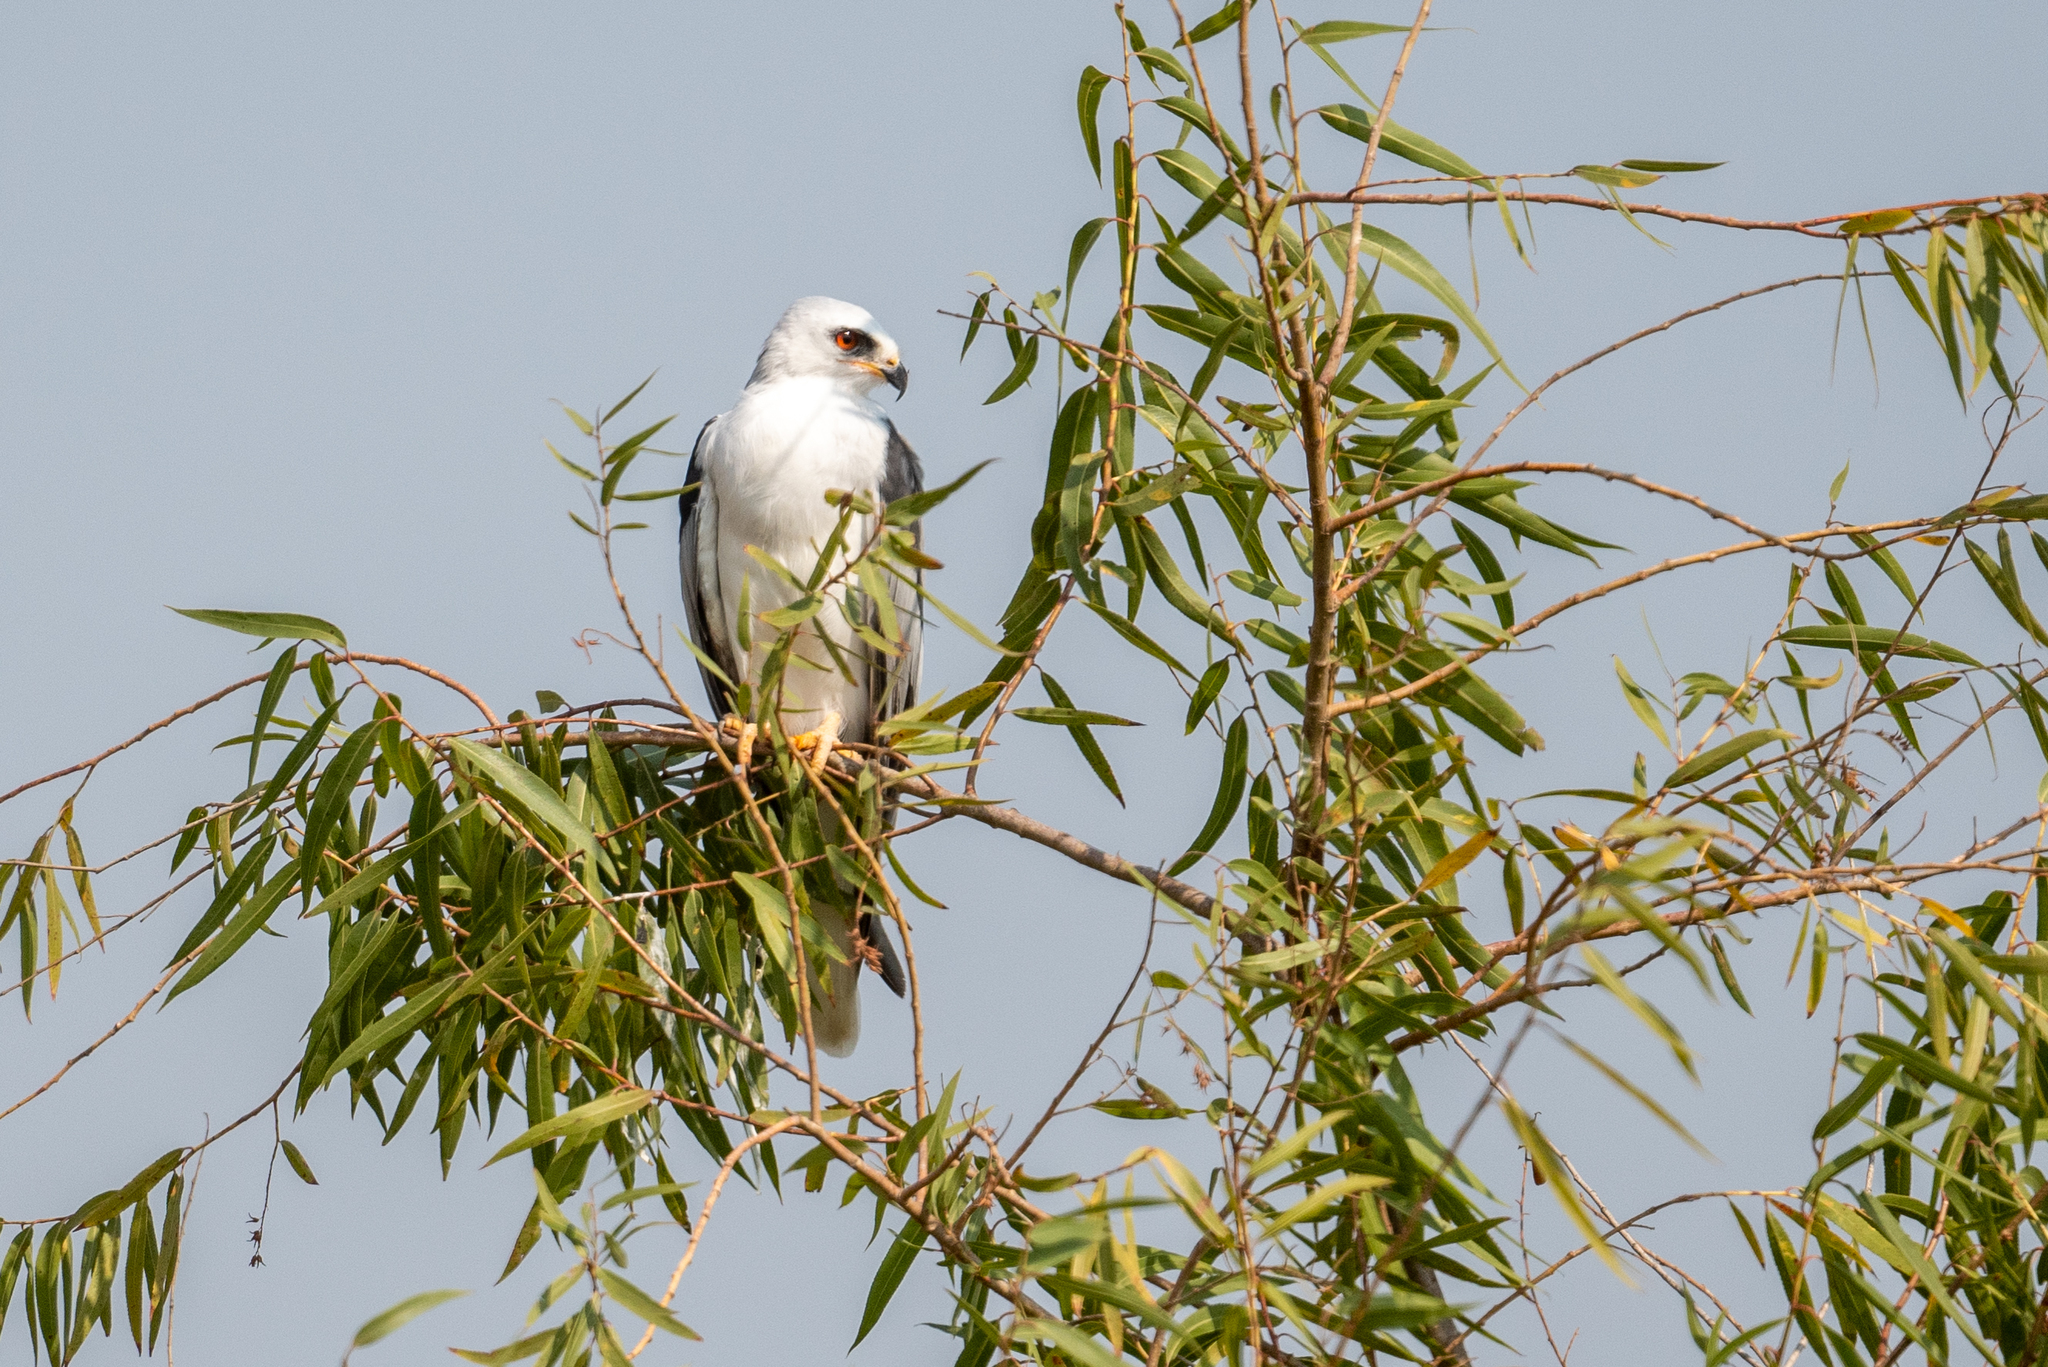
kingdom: Animalia
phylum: Chordata
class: Aves
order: Accipitriformes
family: Accipitridae
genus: Elanus
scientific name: Elanus leucurus
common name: White-tailed kite
